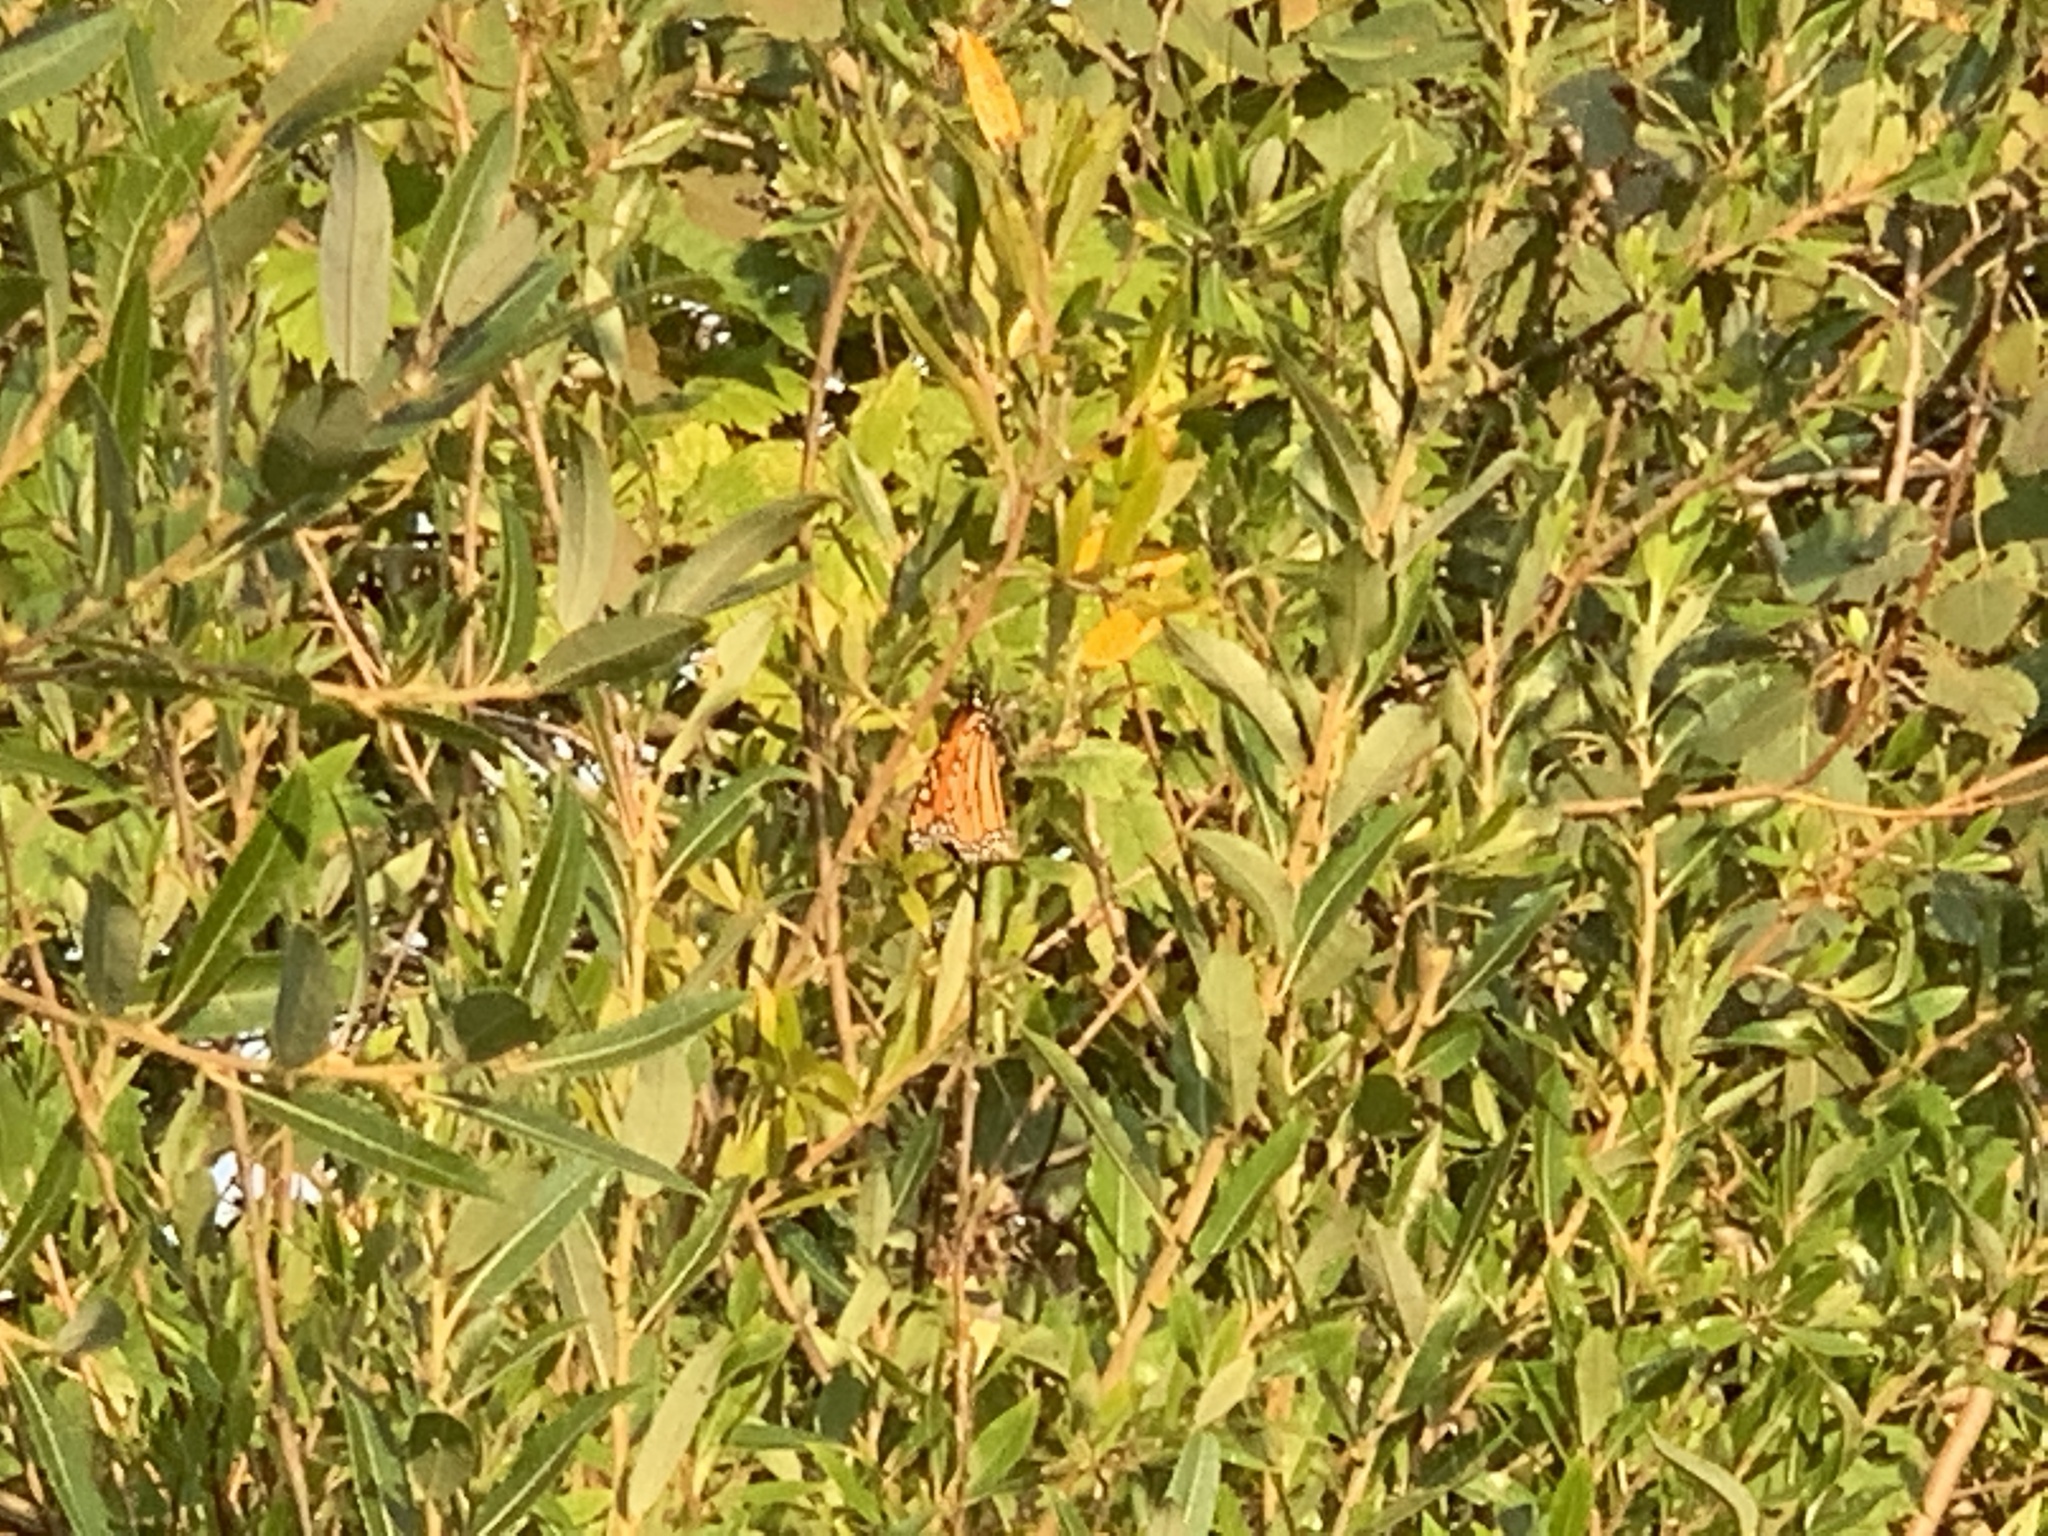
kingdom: Animalia
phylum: Arthropoda
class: Insecta
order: Lepidoptera
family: Nymphalidae
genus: Danaus
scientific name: Danaus plexippus
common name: Monarch
